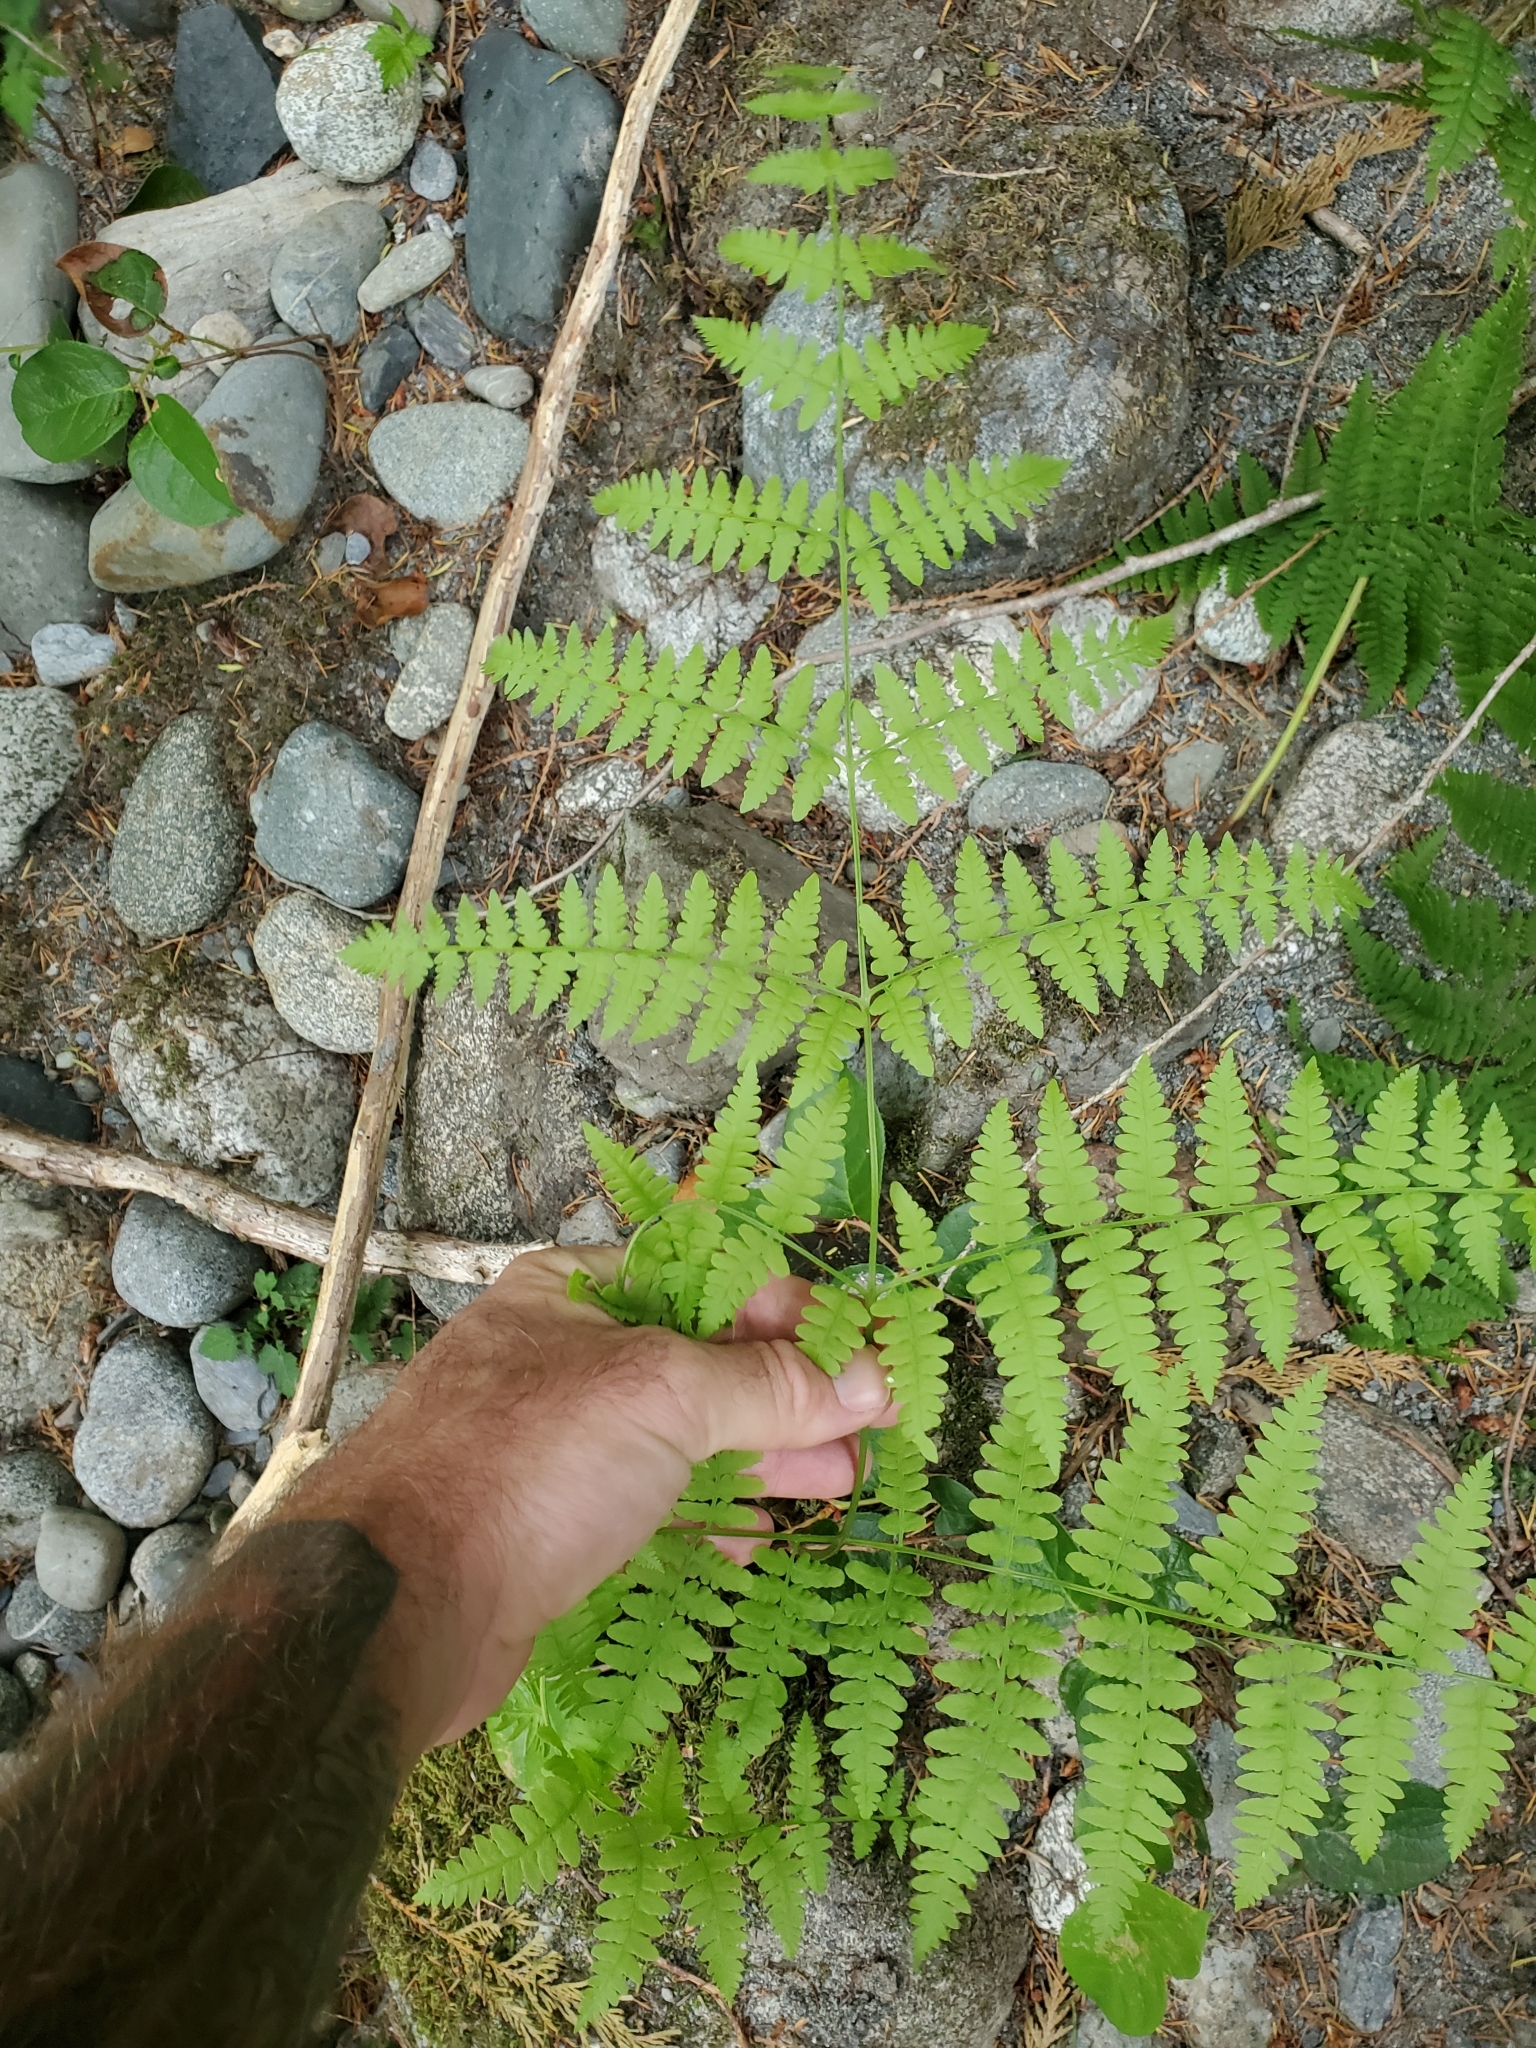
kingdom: Plantae
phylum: Tracheophyta
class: Polypodiopsida
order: Polypodiales
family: Dennstaedtiaceae
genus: Pteridium
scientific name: Pteridium aquilinum
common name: Bracken
